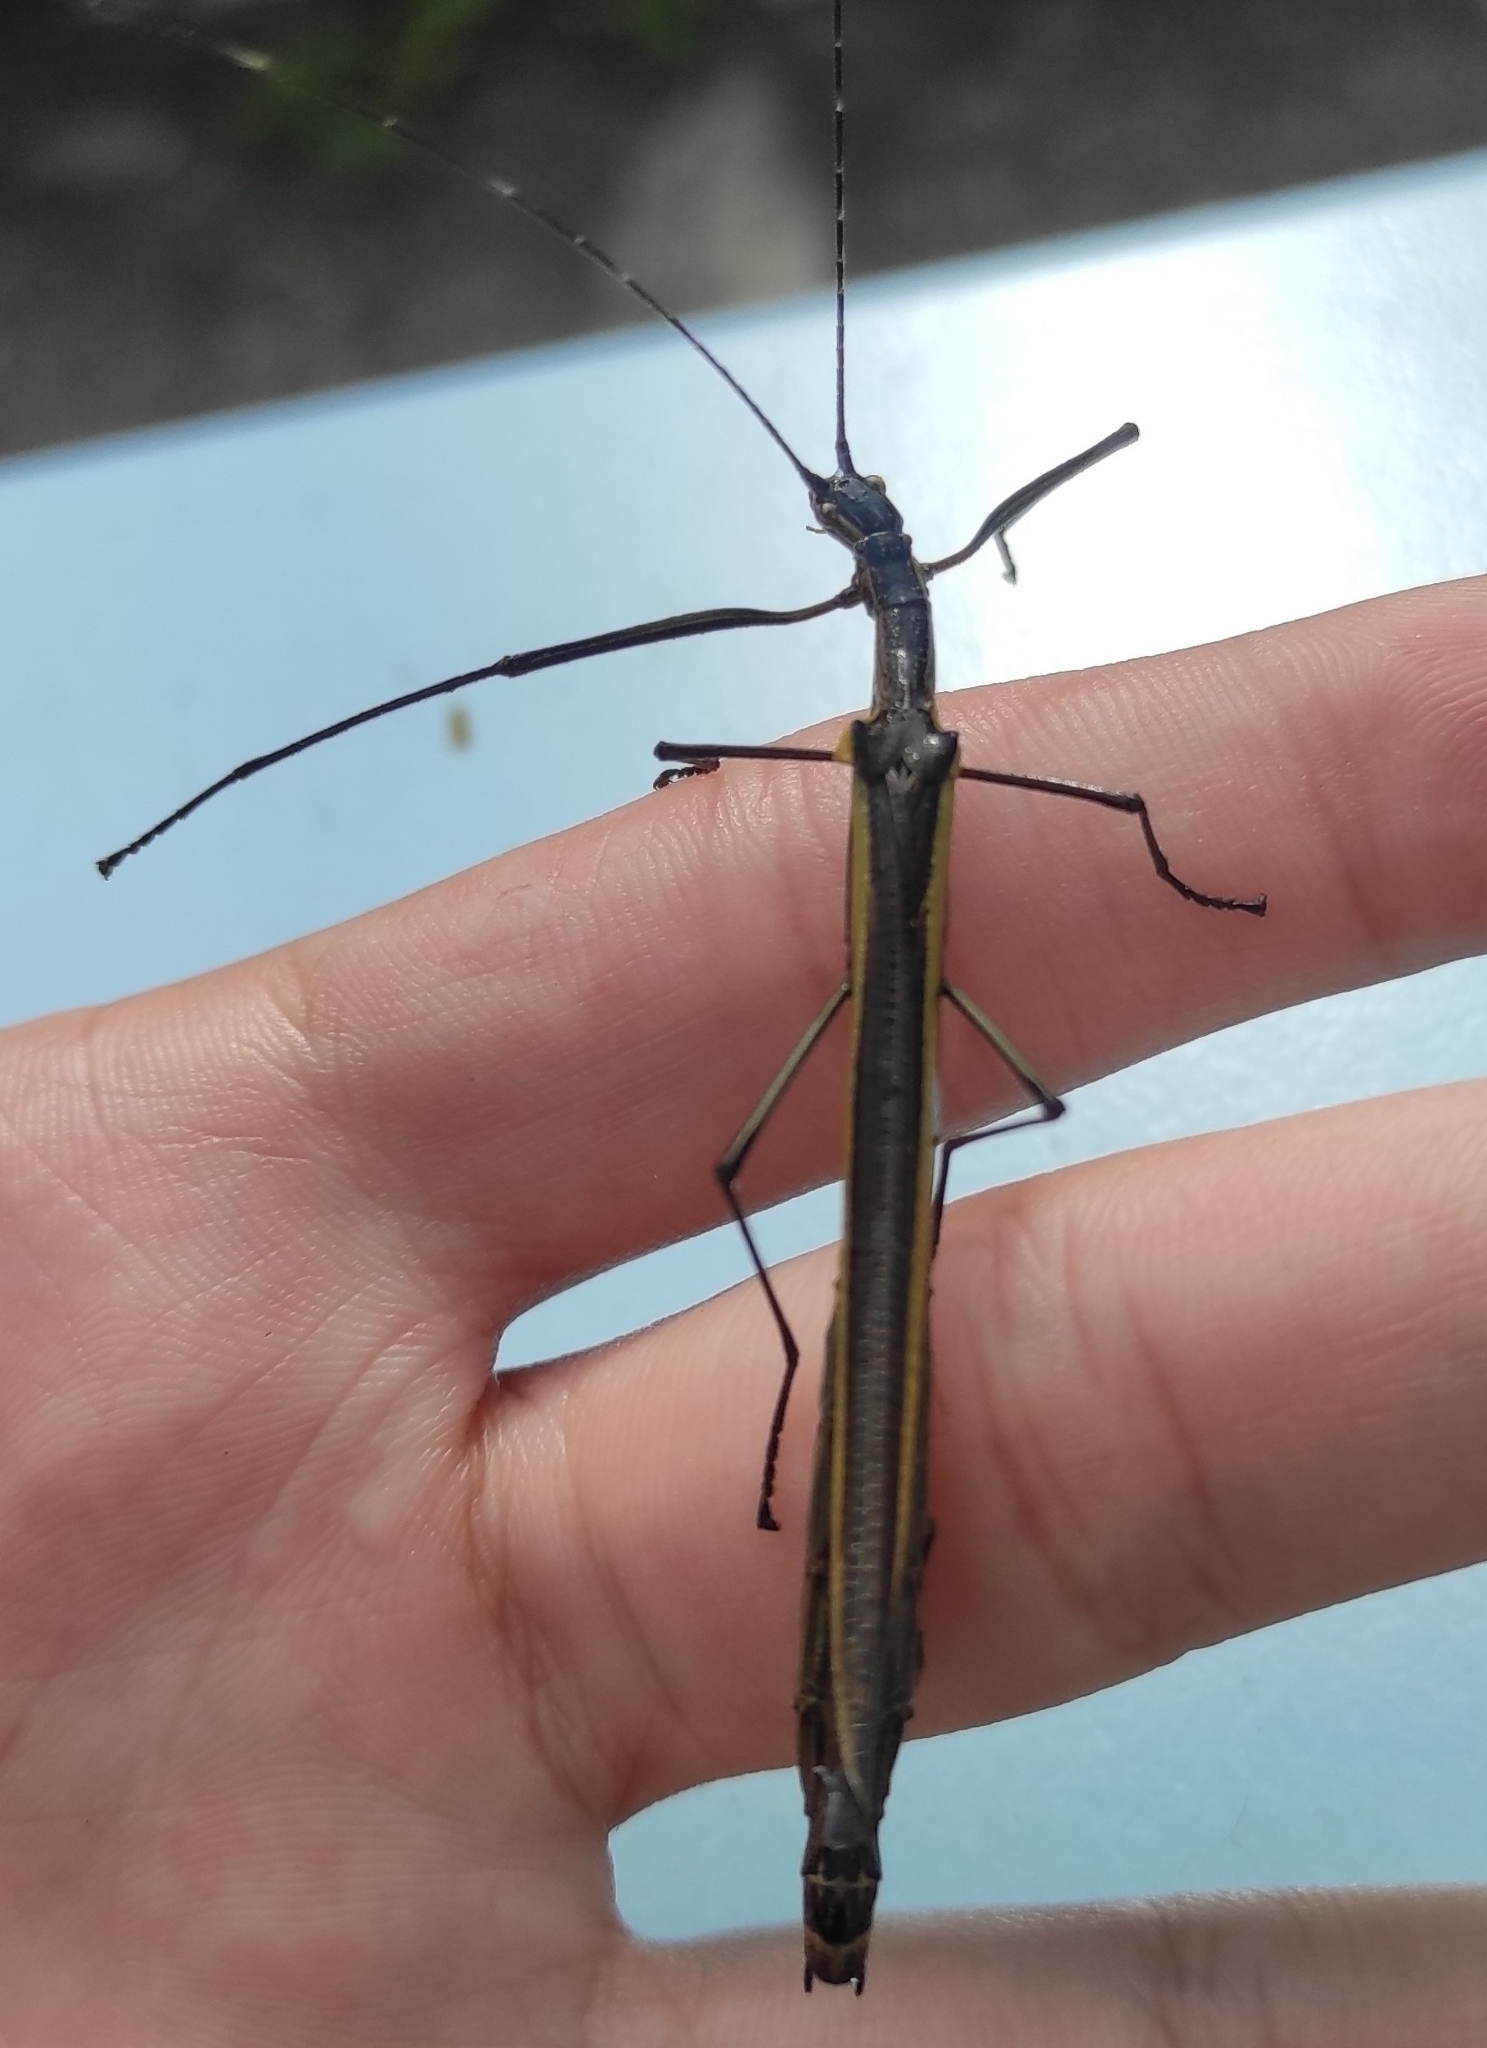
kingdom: Animalia
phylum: Arthropoda
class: Insecta
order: Phasmida
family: Pseudophasmatidae
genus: Paraphasma
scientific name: Paraphasma laterale
